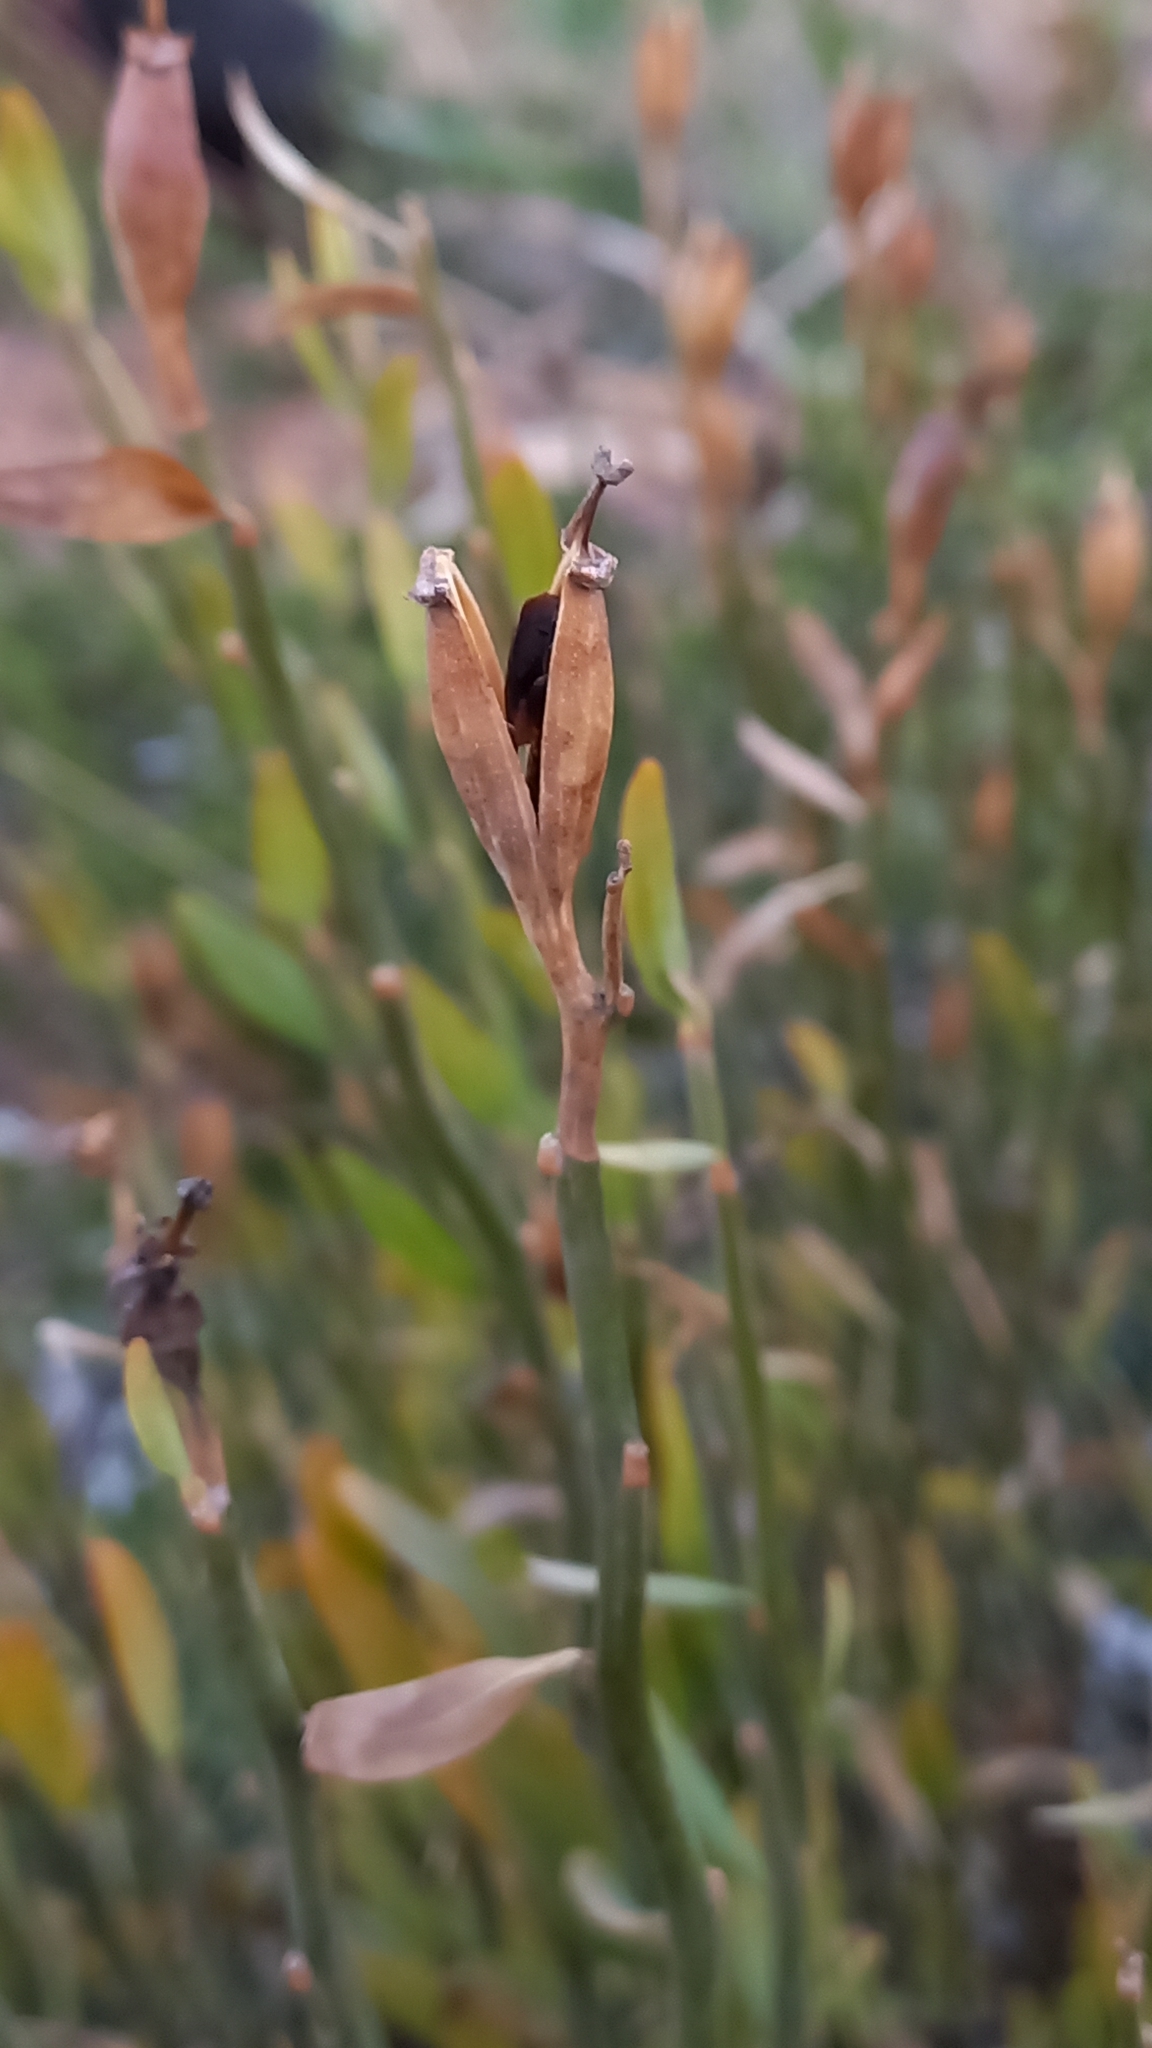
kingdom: Plantae
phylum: Tracheophyta
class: Magnoliopsida
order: Solanales
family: Montiniaceae
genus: Montinia
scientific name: Montinia caryophyllacea
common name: Wild clove-bush
